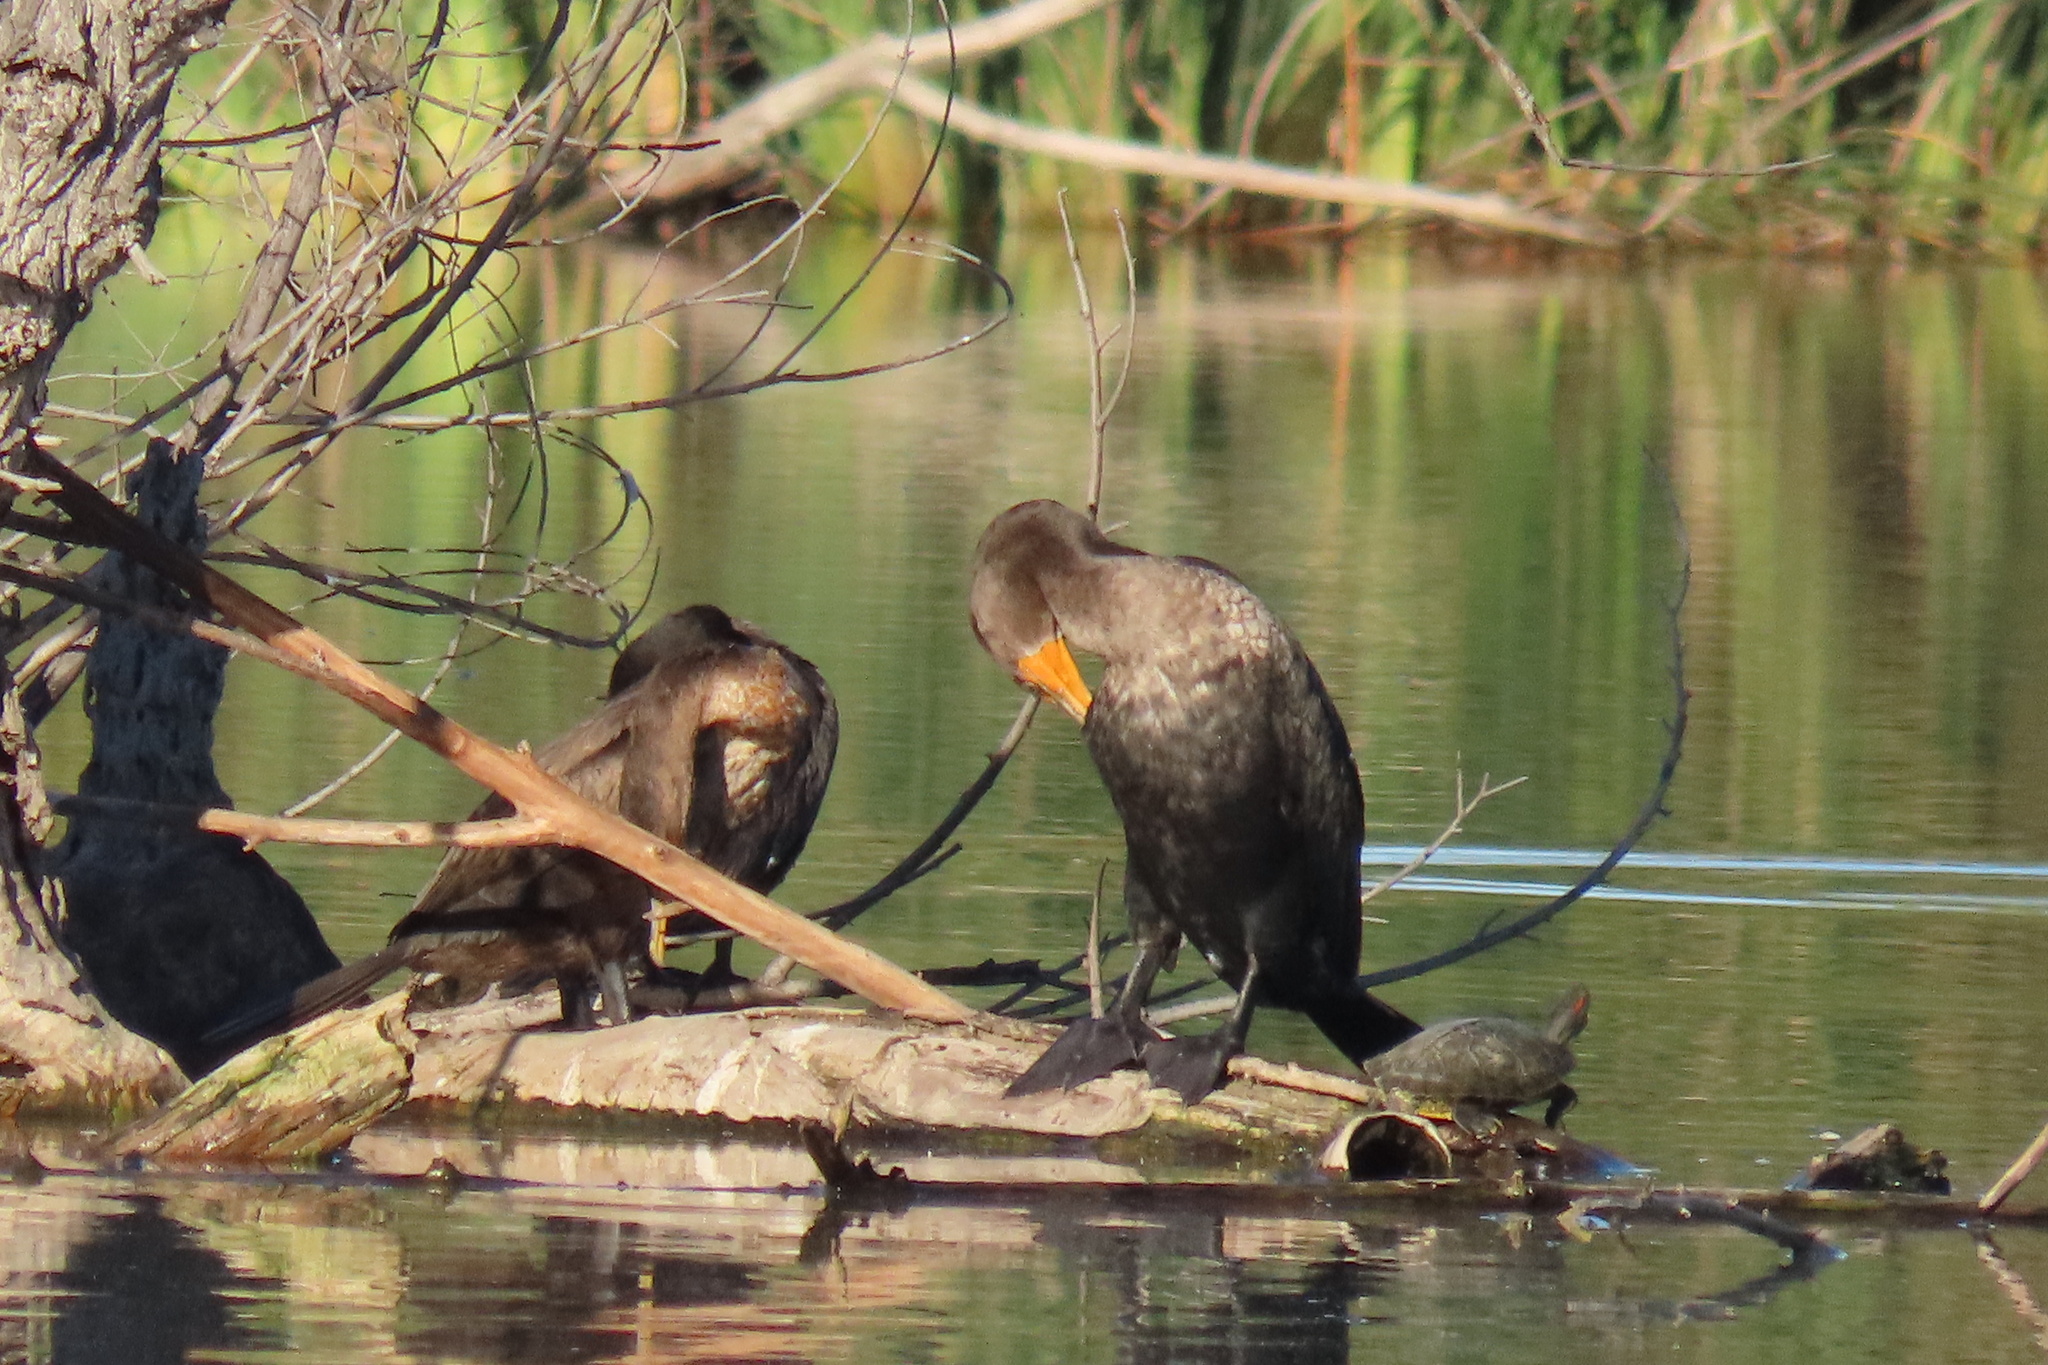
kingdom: Animalia
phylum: Chordata
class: Aves
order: Suliformes
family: Phalacrocoracidae
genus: Phalacrocorax
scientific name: Phalacrocorax auritus
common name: Double-crested cormorant
